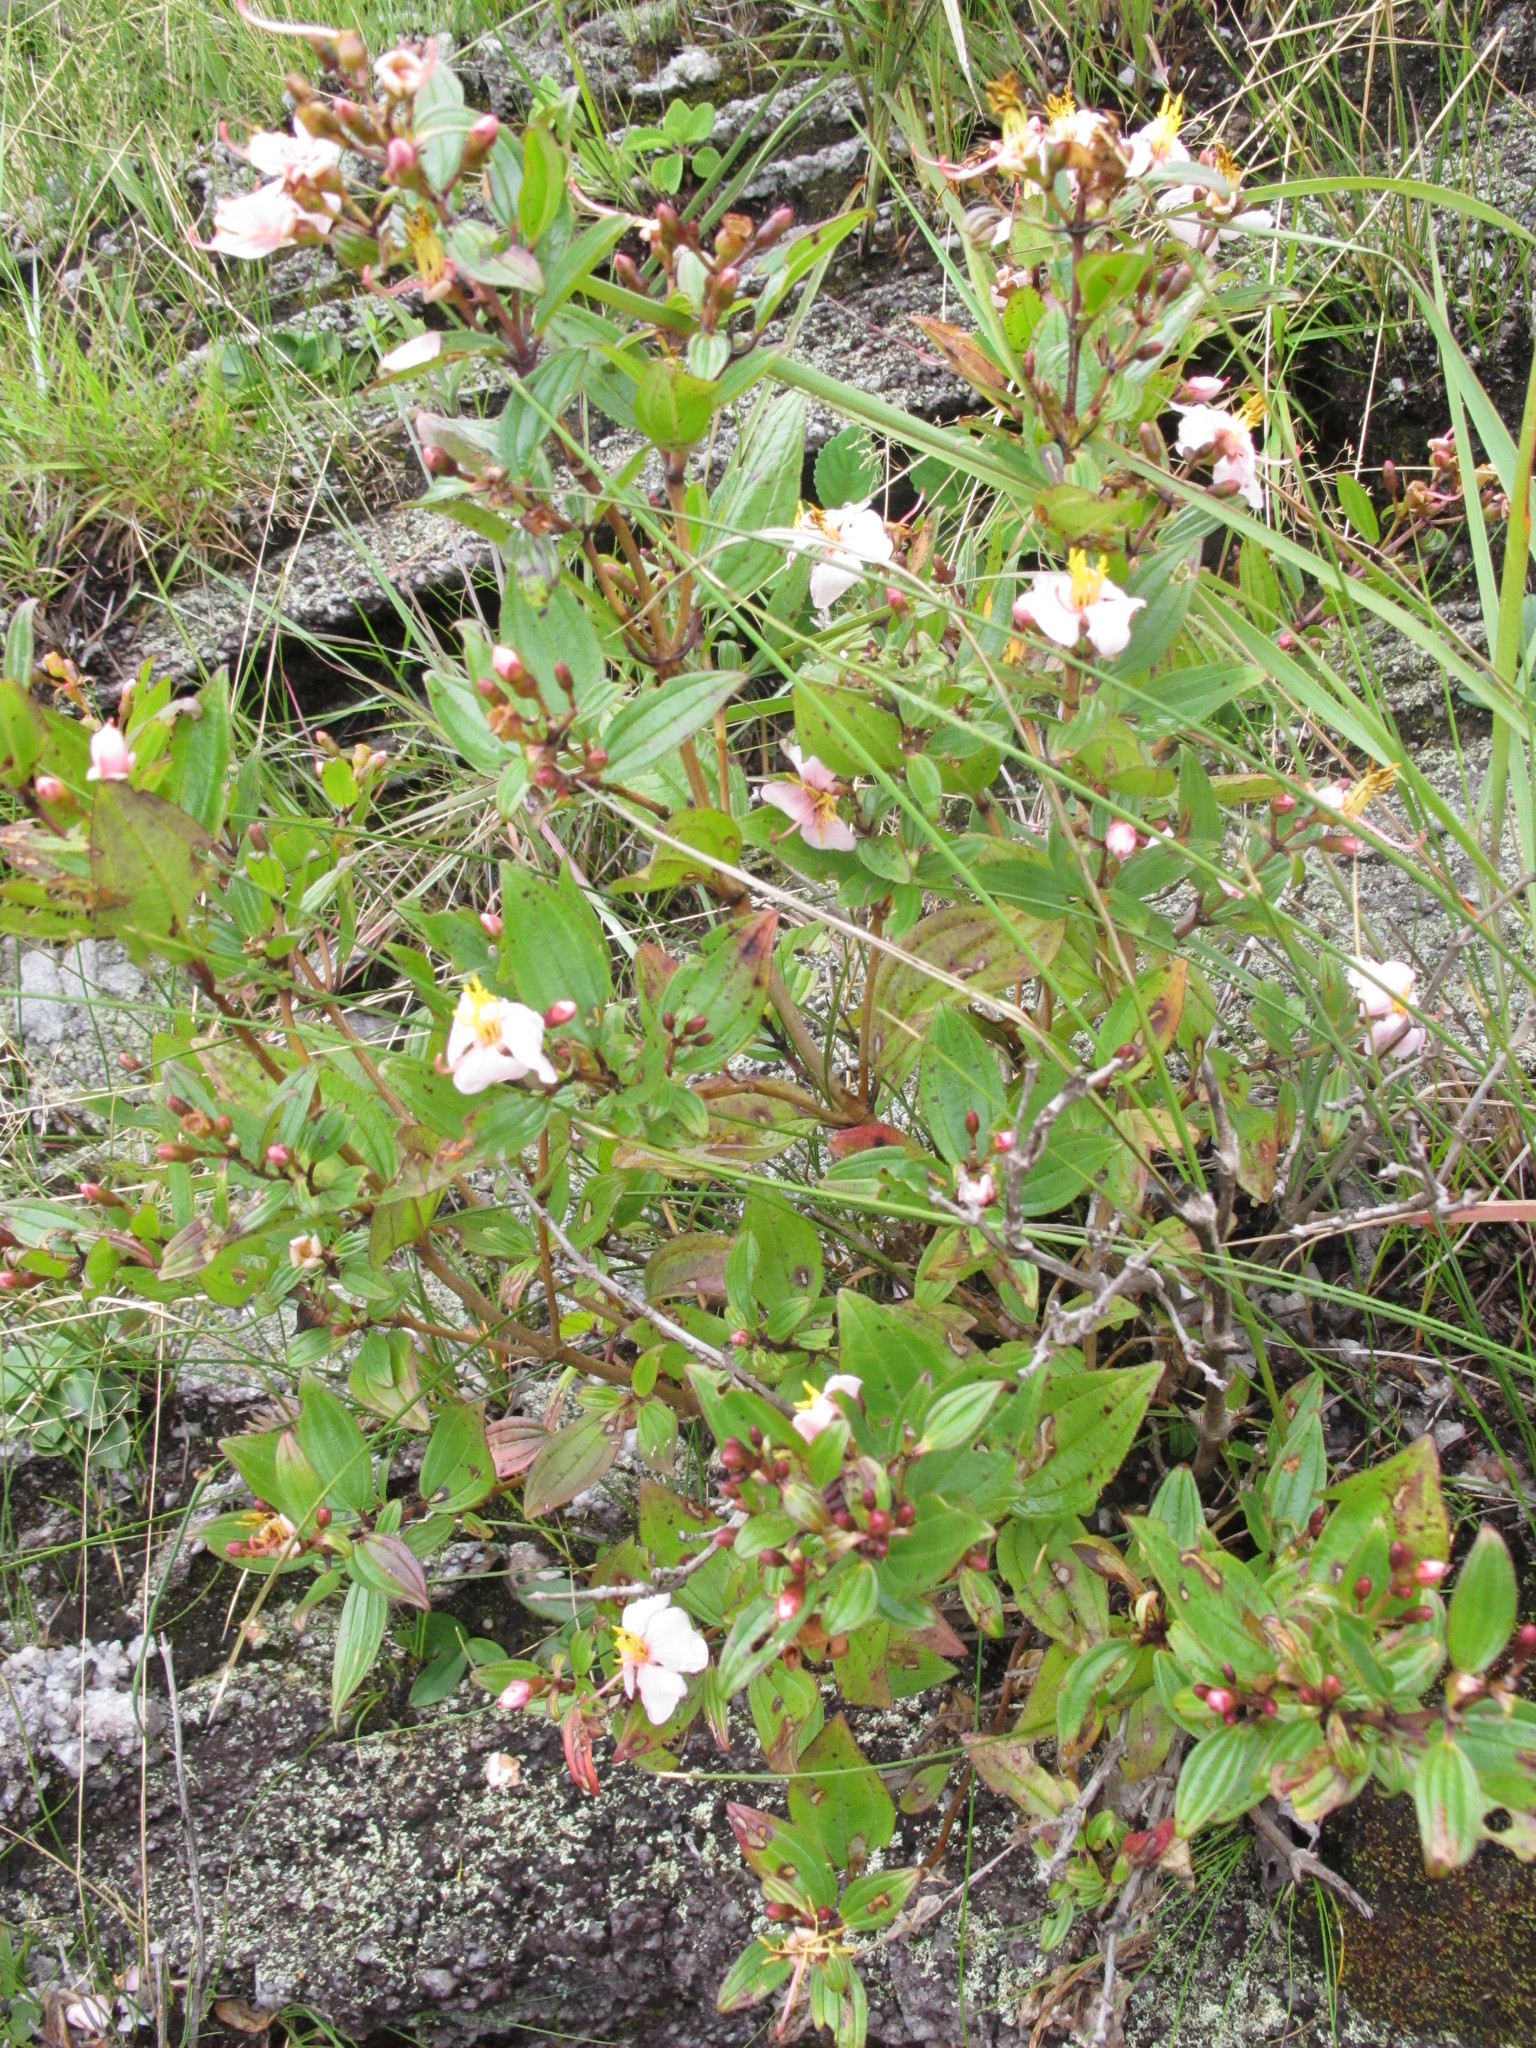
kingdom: Plantae
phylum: Tracheophyta
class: Magnoliopsida
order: Myrtales
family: Melastomataceae
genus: Amphorocalyx
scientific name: Amphorocalyx rupestris
